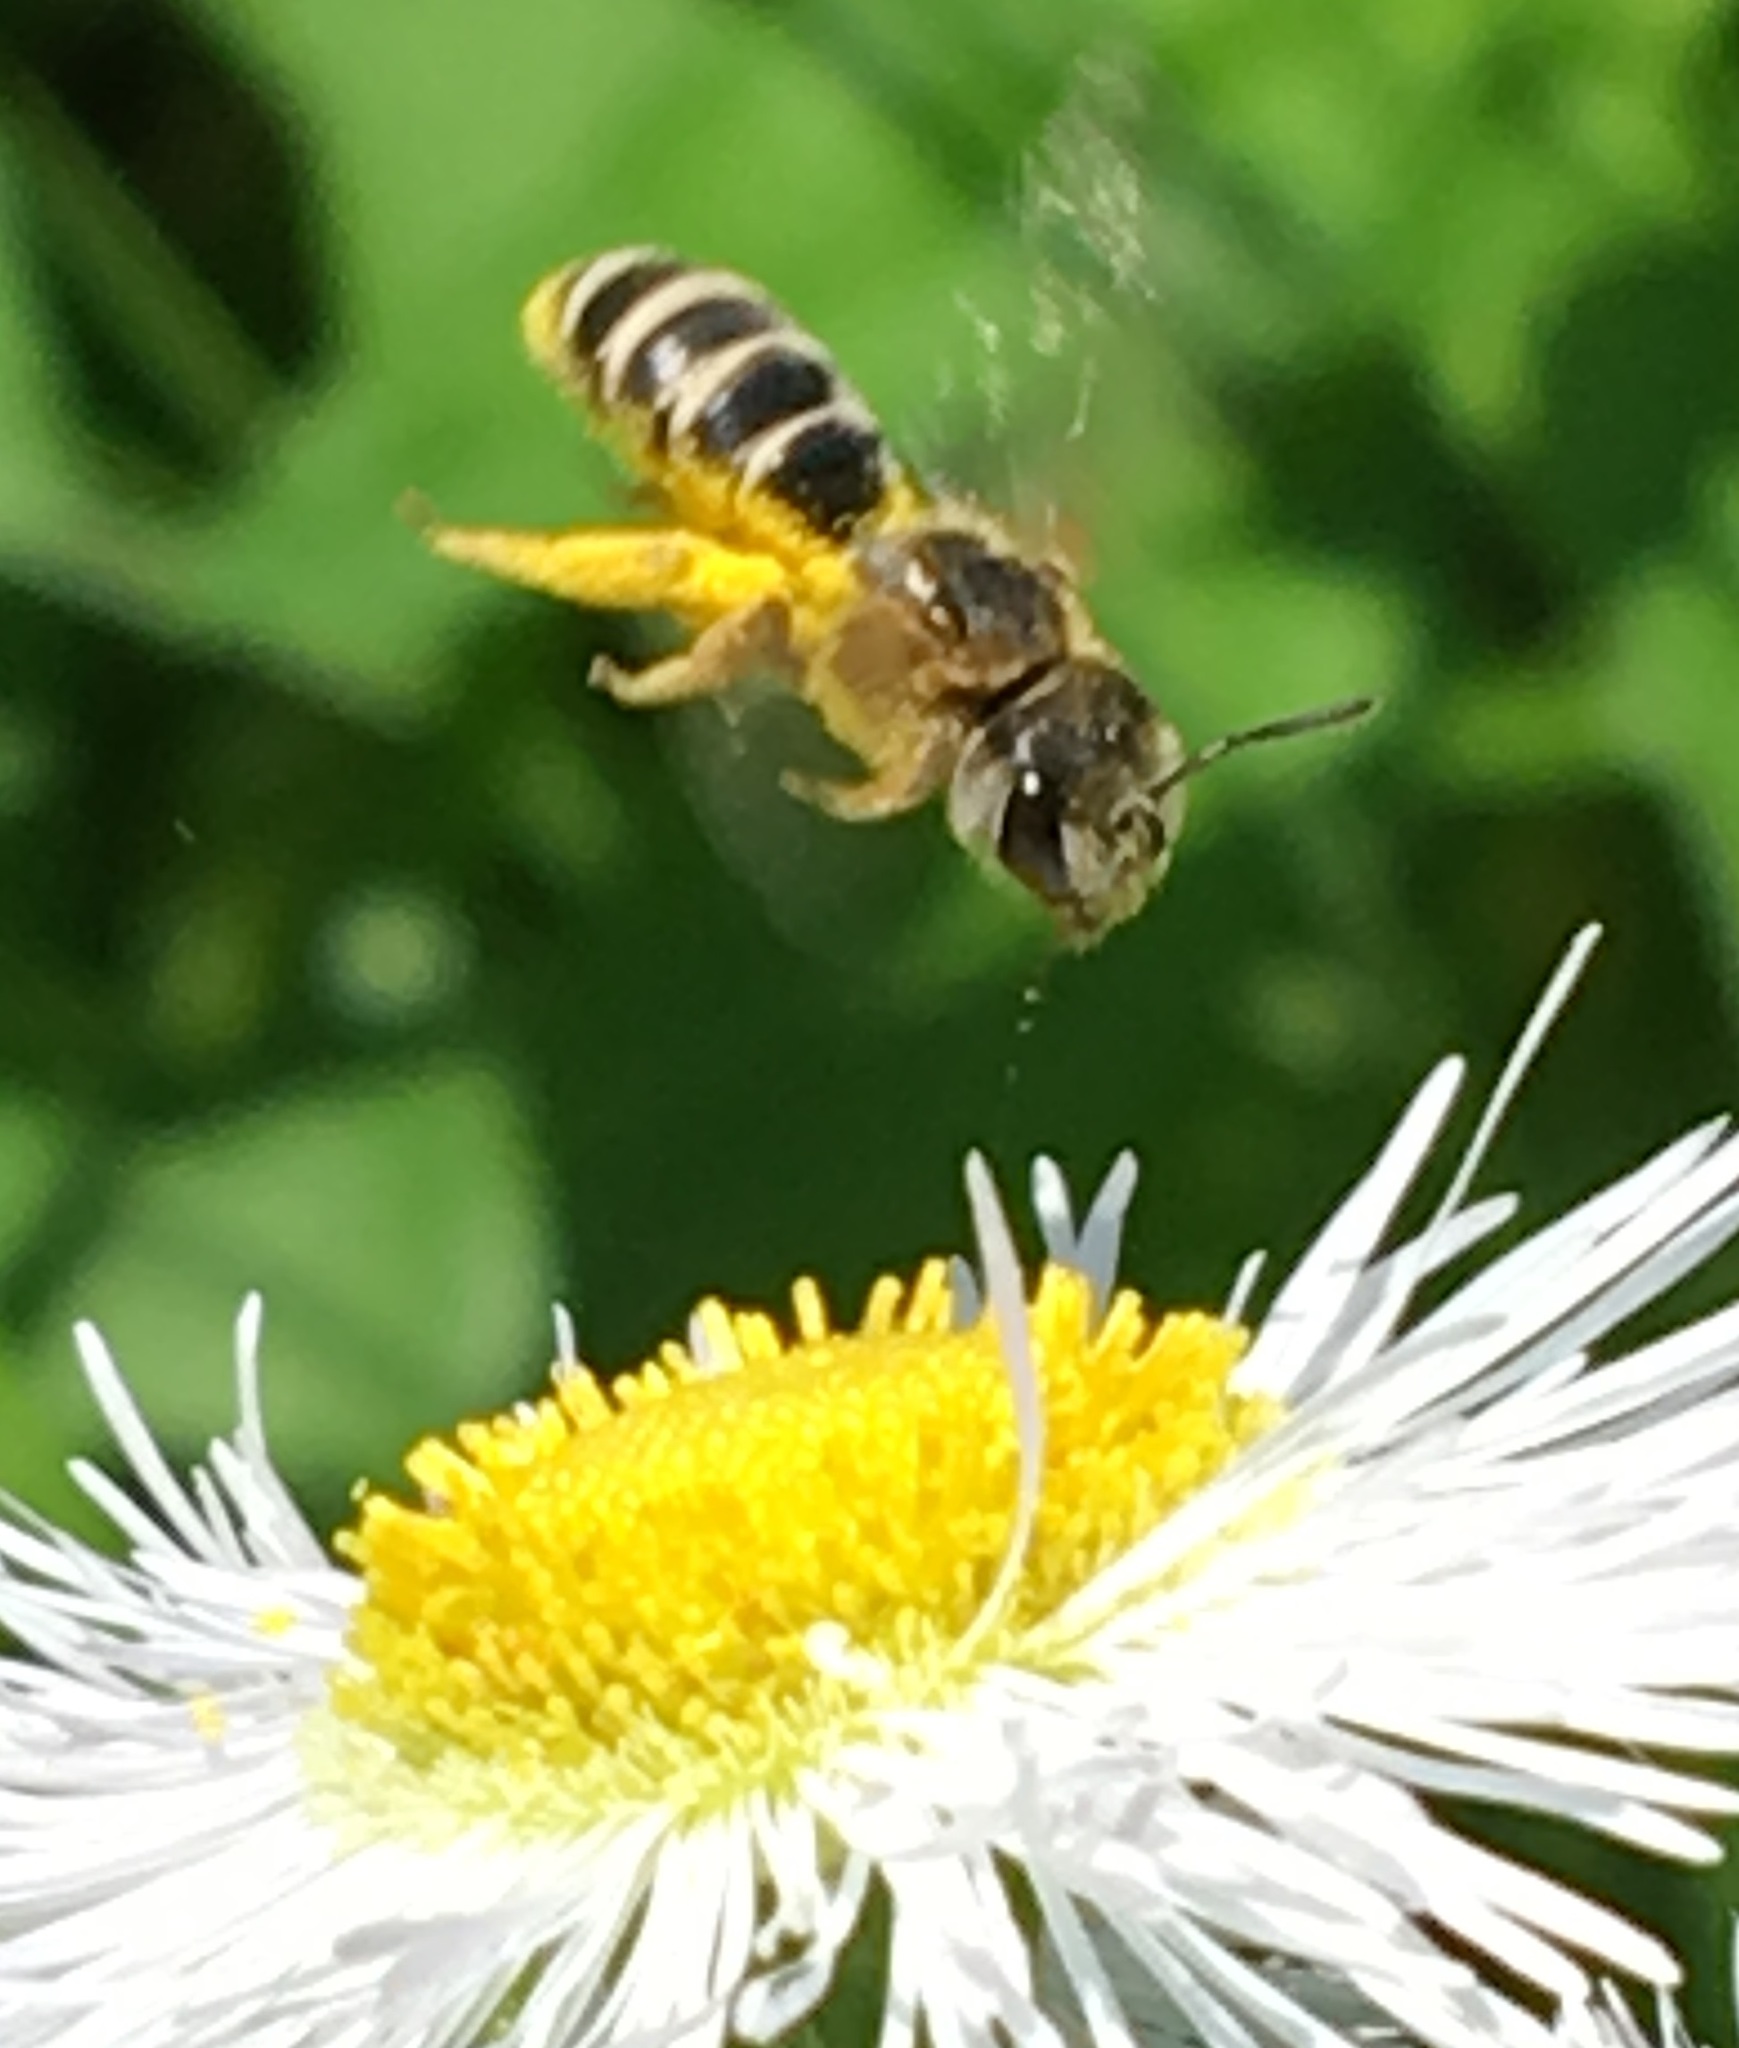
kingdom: Animalia
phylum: Arthropoda
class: Insecta
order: Hymenoptera
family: Halictidae
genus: Halictus
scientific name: Halictus ligatus
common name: Ligated furrow bee
